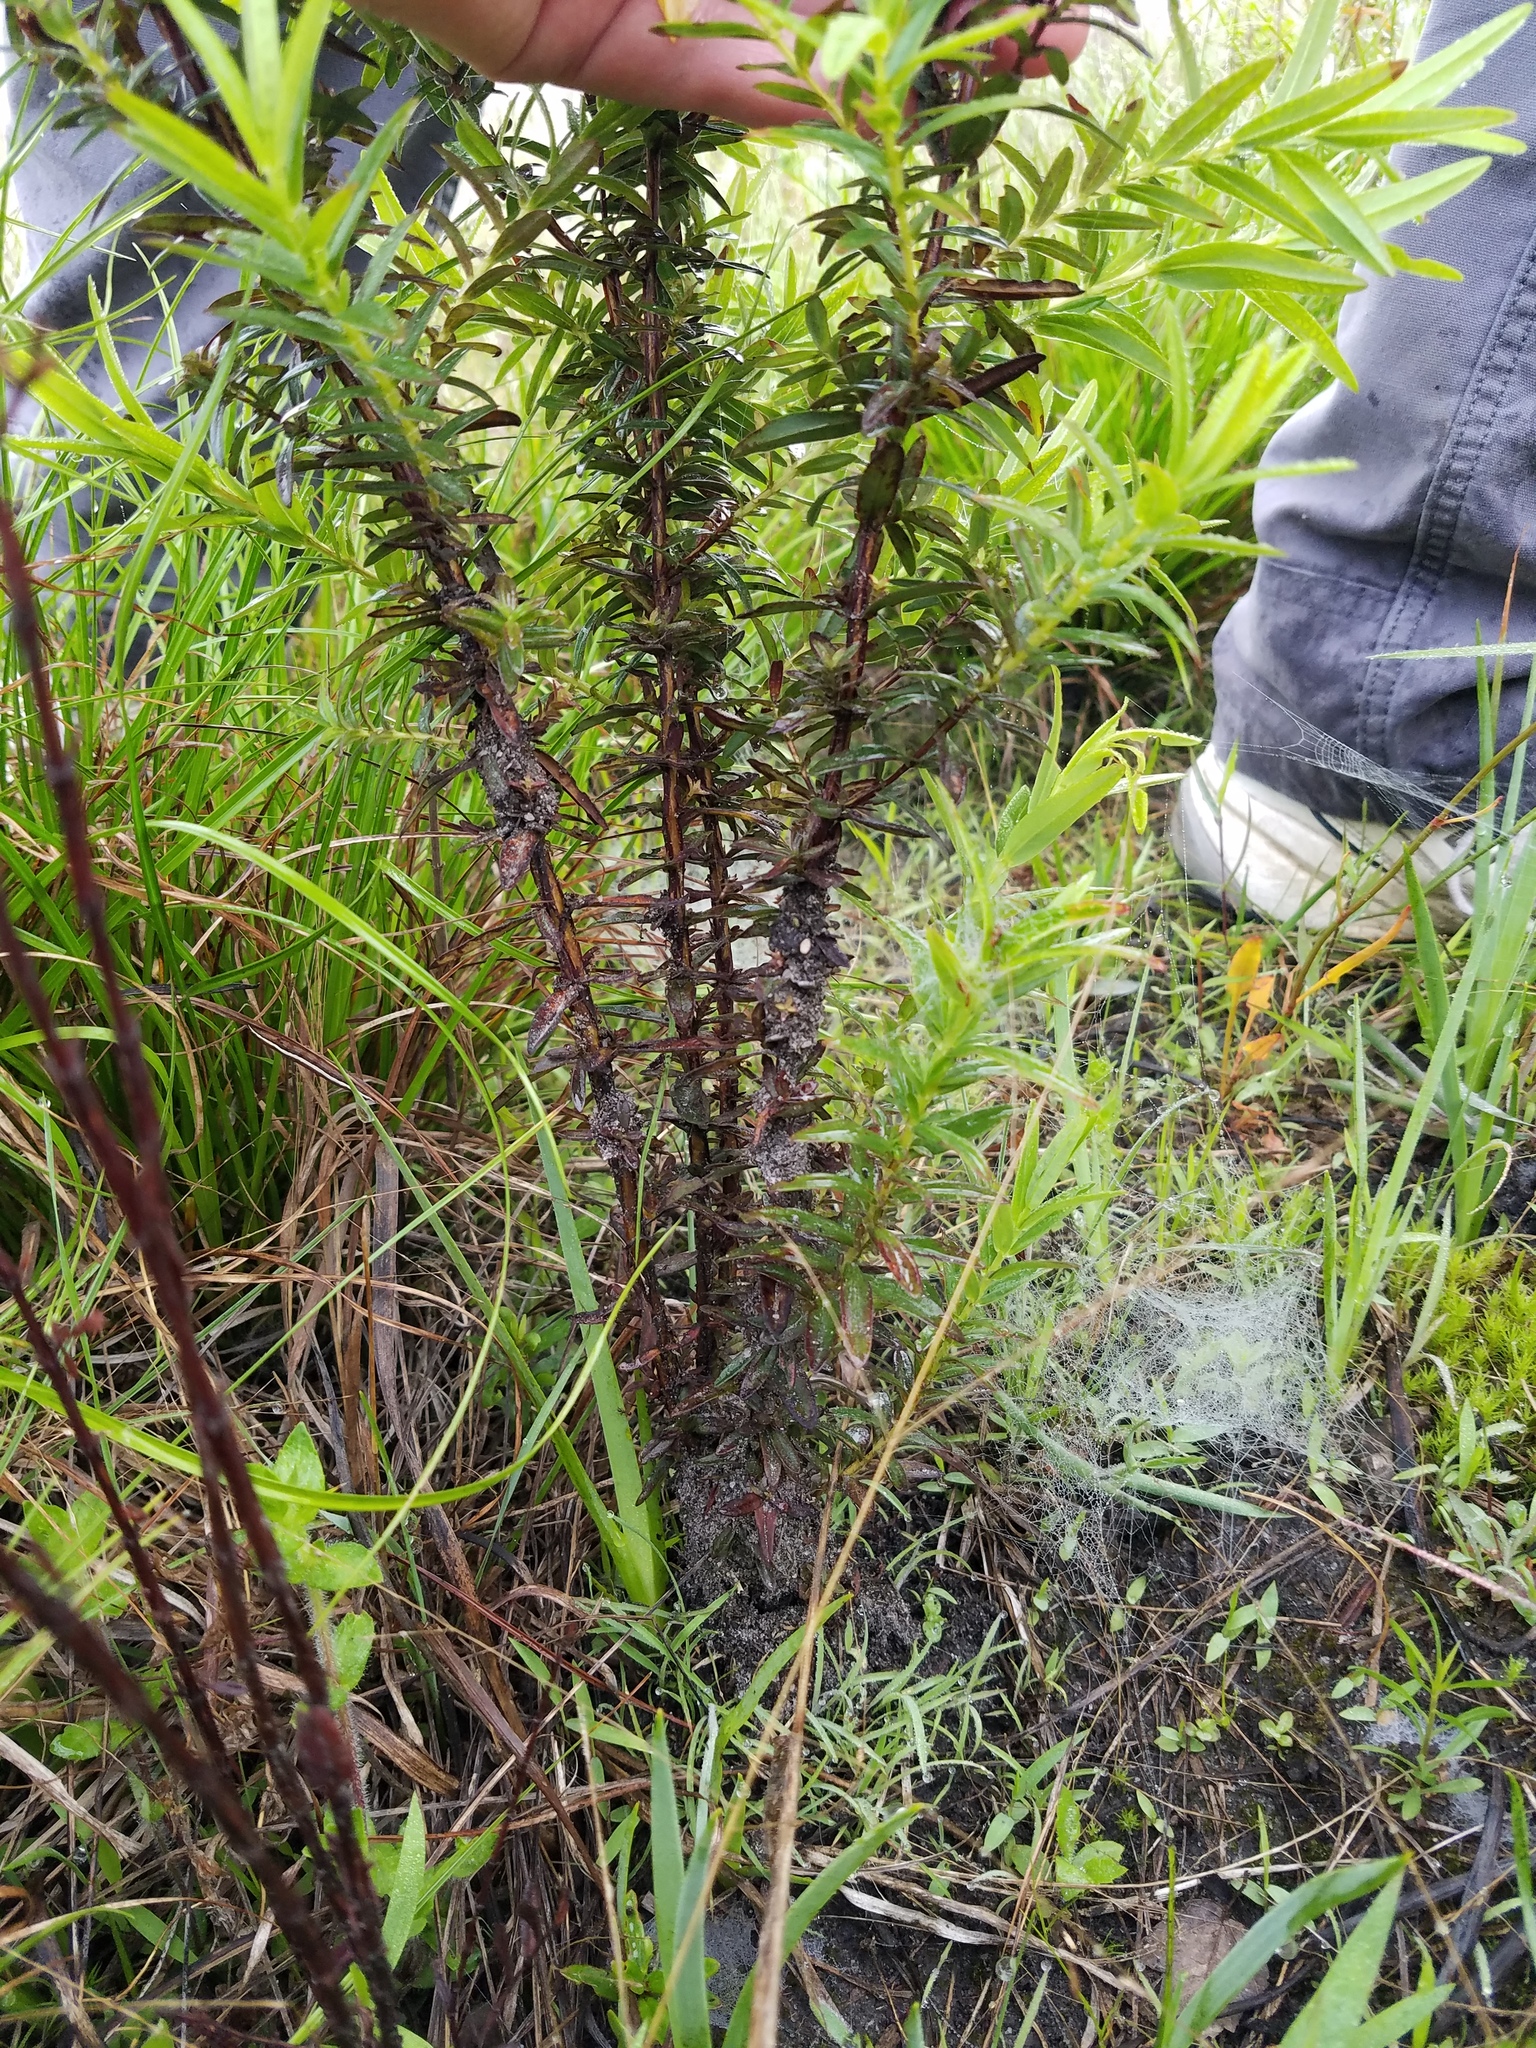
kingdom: Plantae
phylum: Tracheophyta
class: Magnoliopsida
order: Malpighiales
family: Hypericaceae
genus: Hypericum
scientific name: Hypericum cistifolium
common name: Round-pod st. john's-wort
